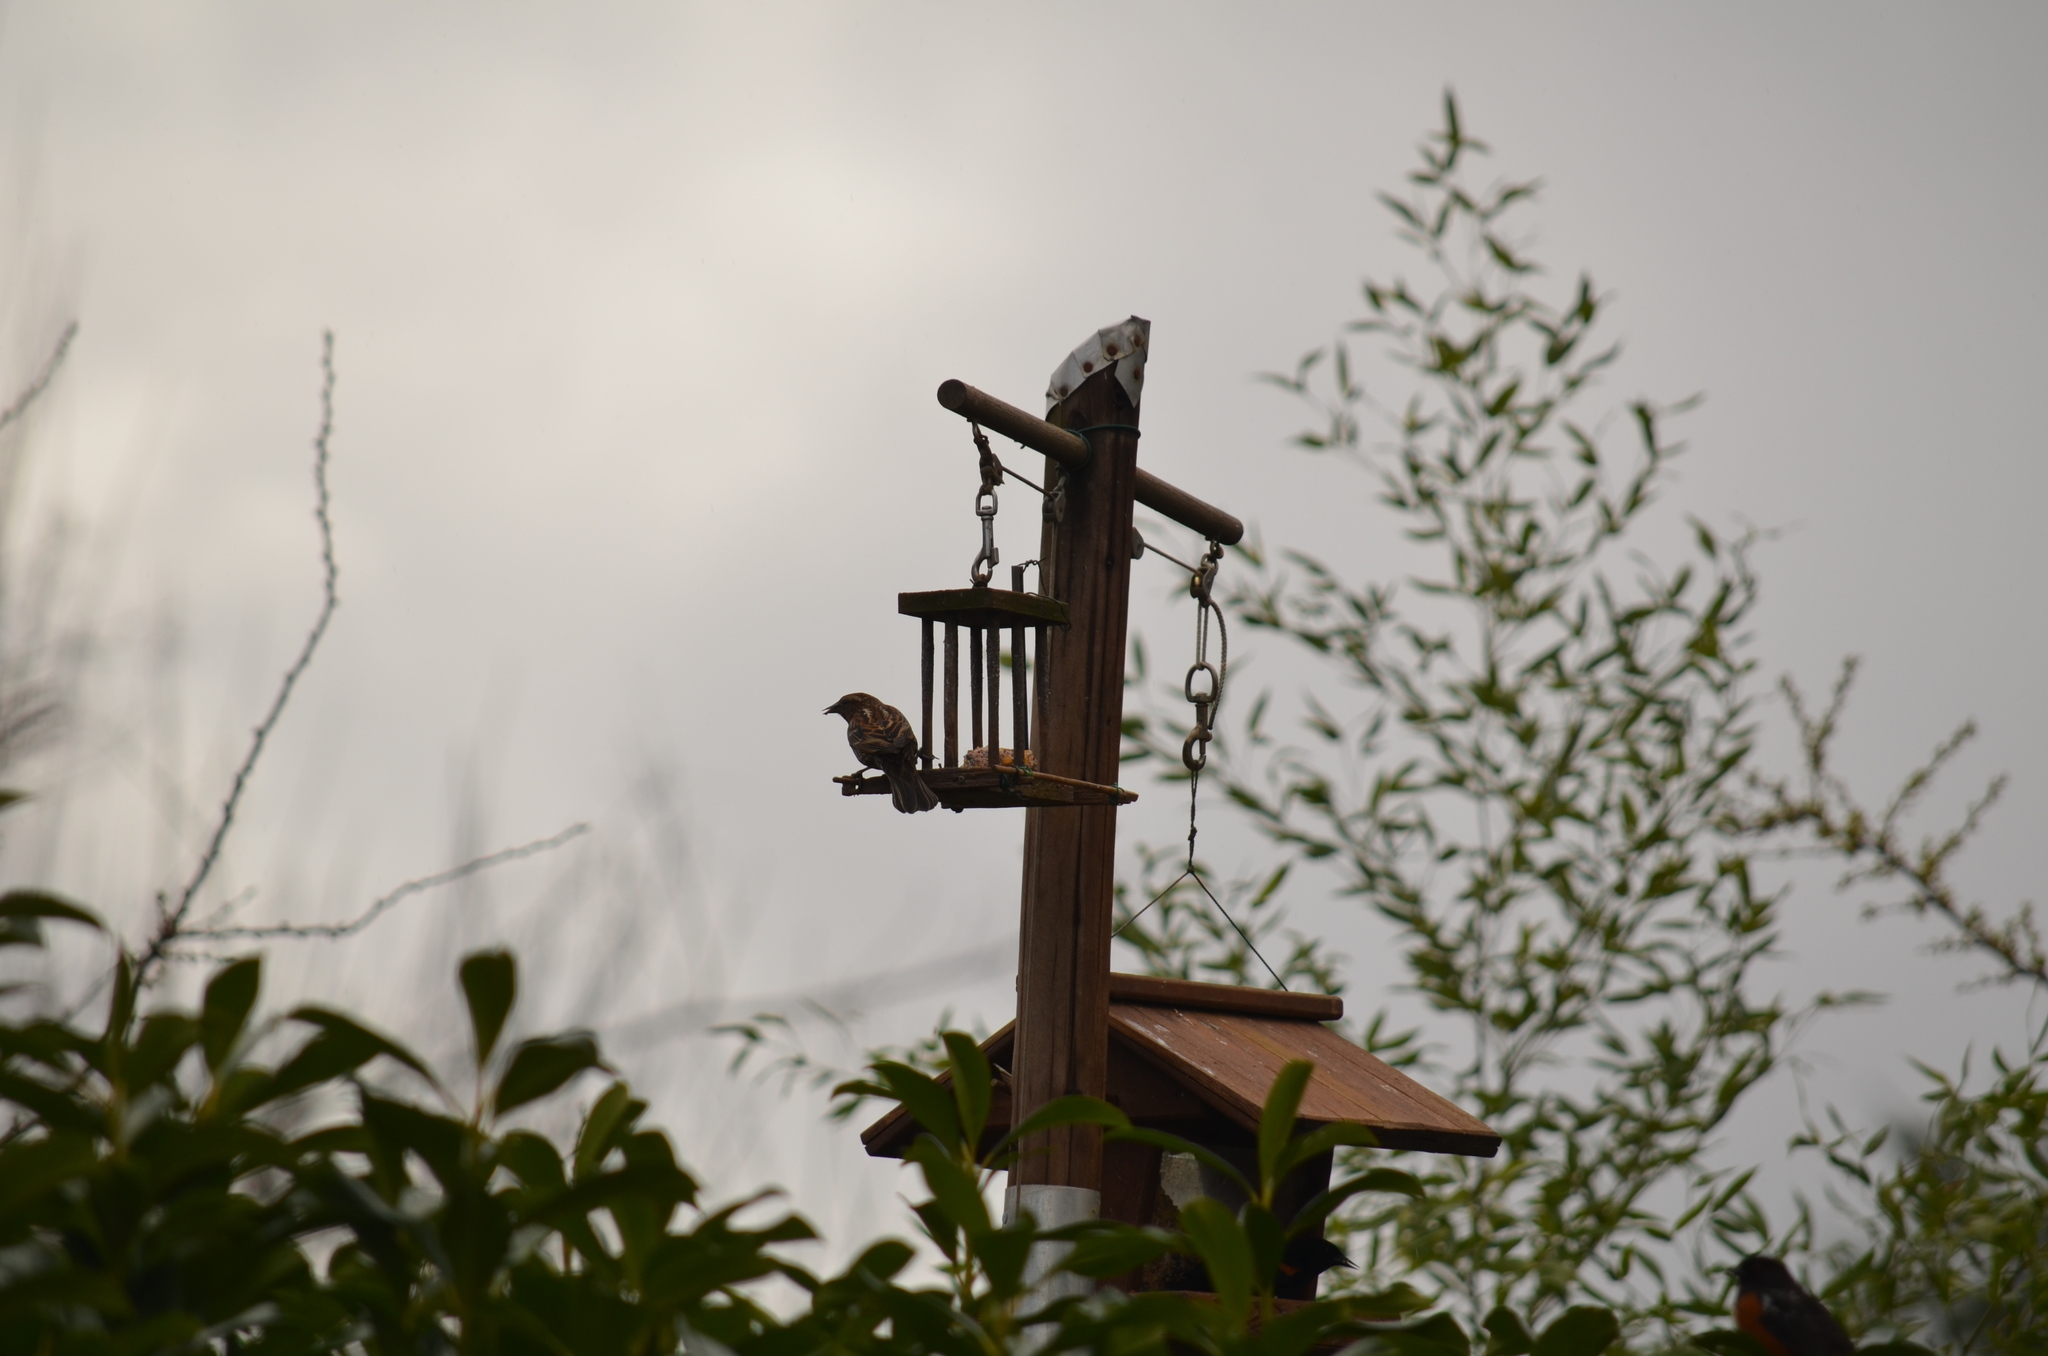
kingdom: Animalia
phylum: Chordata
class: Aves
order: Passeriformes
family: Icteridae
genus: Agelaius
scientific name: Agelaius phoeniceus
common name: Red-winged blackbird
